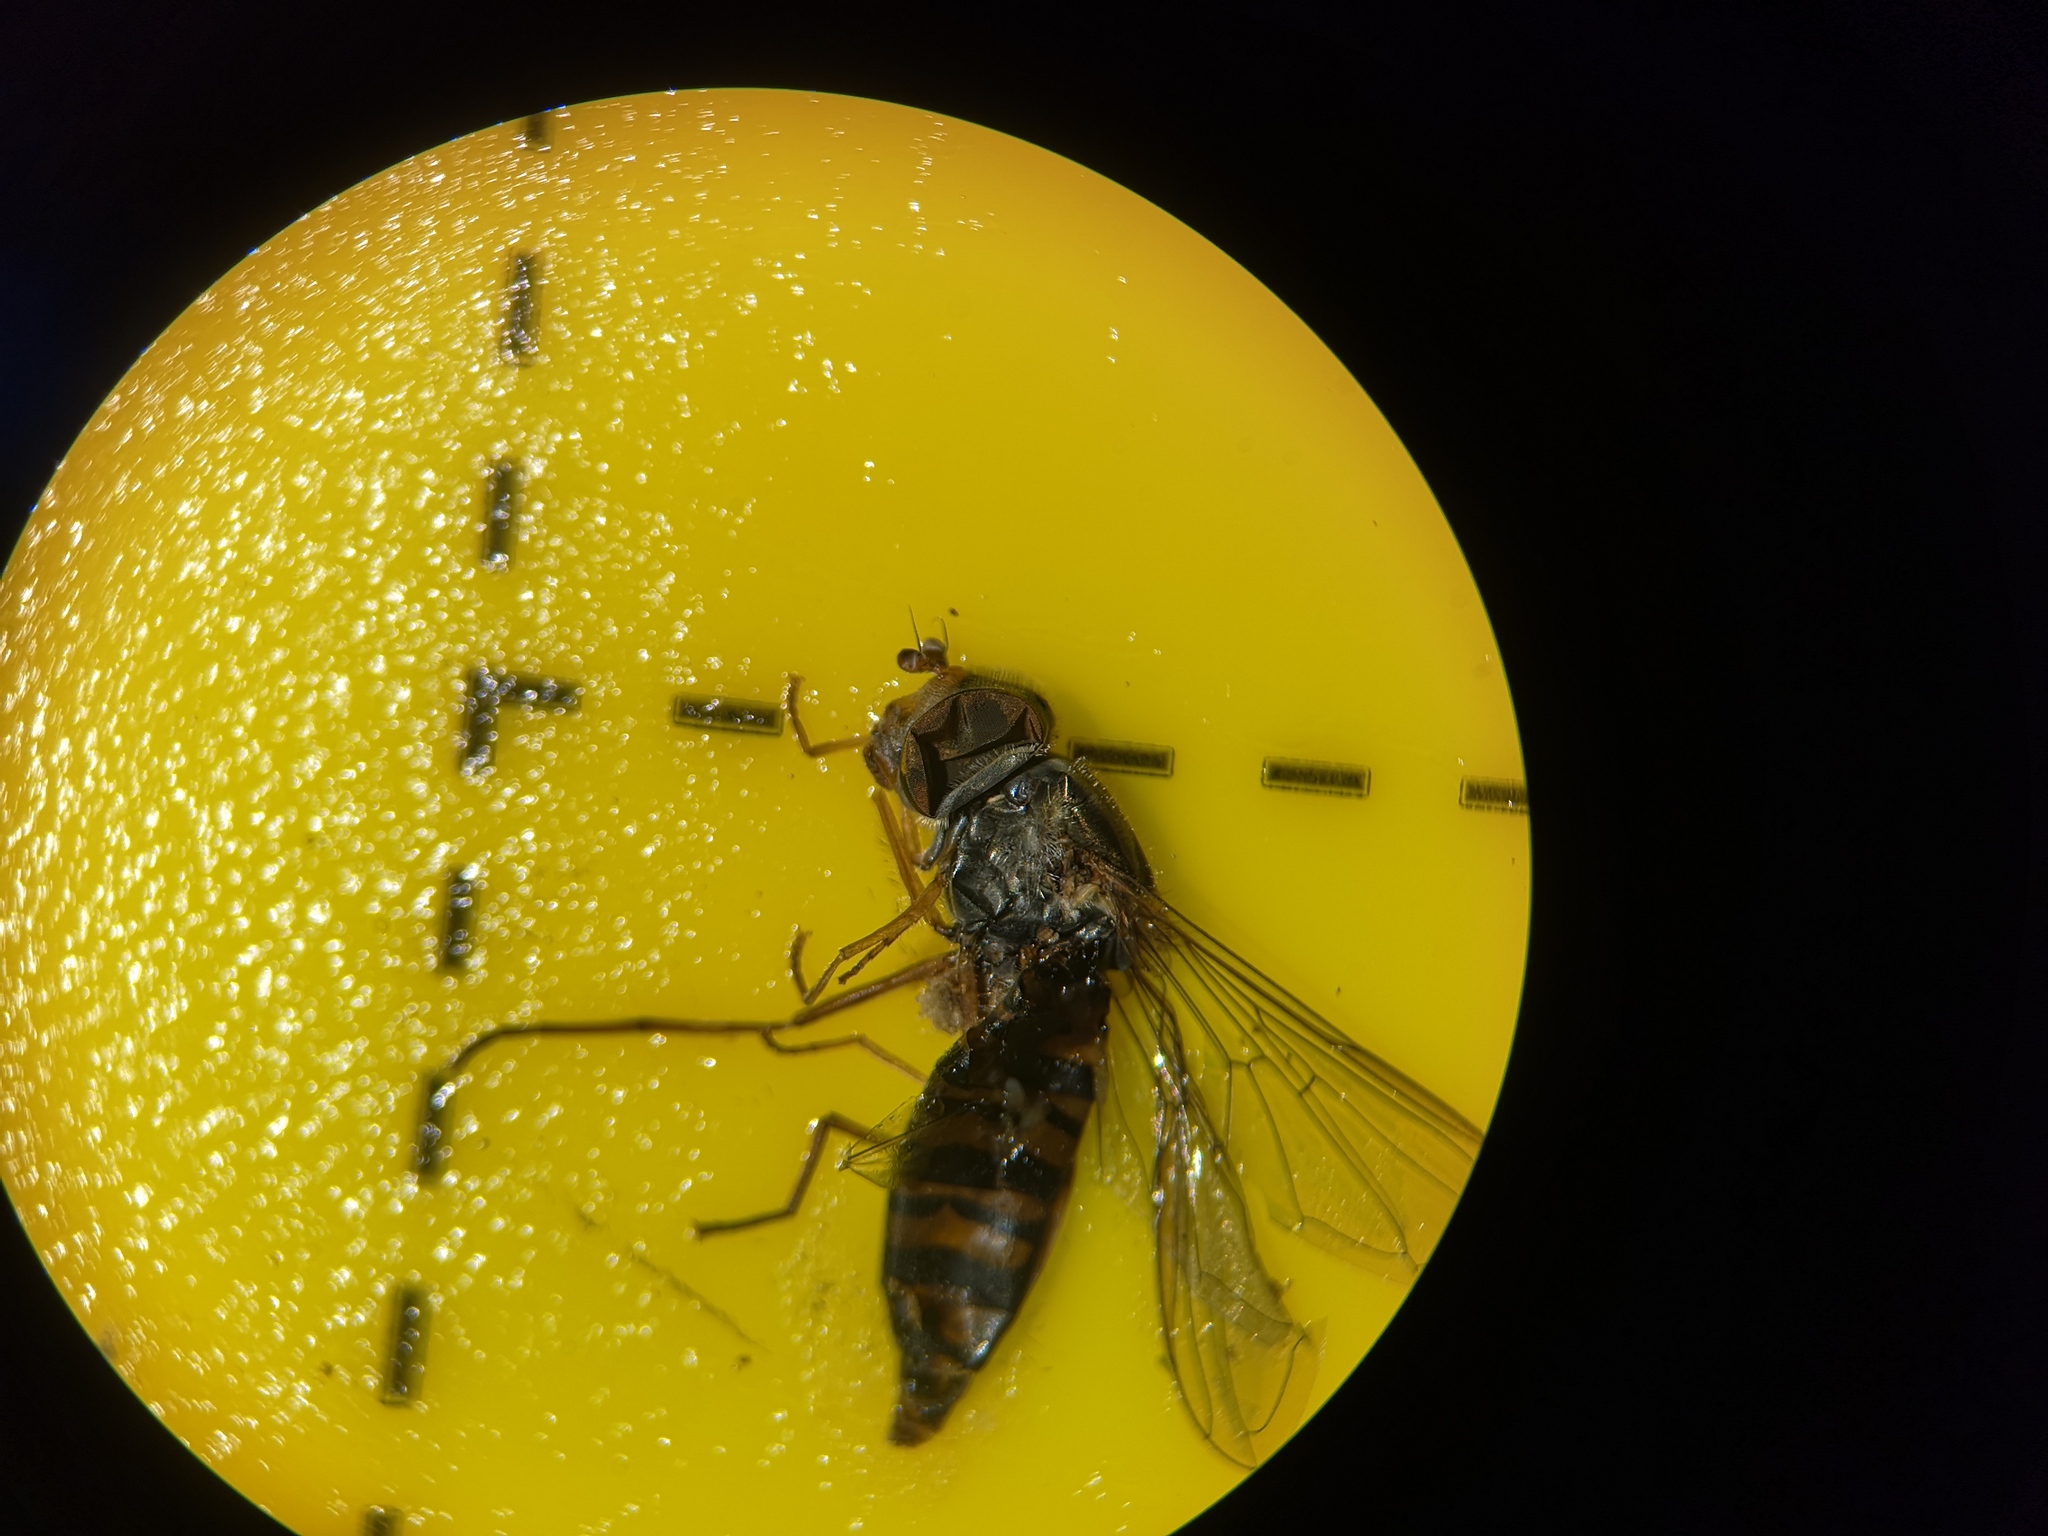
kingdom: Animalia
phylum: Arthropoda
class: Insecta
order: Diptera
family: Syrphidae
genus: Episyrphus
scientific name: Episyrphus balteatus
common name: Marmalade hoverfly
